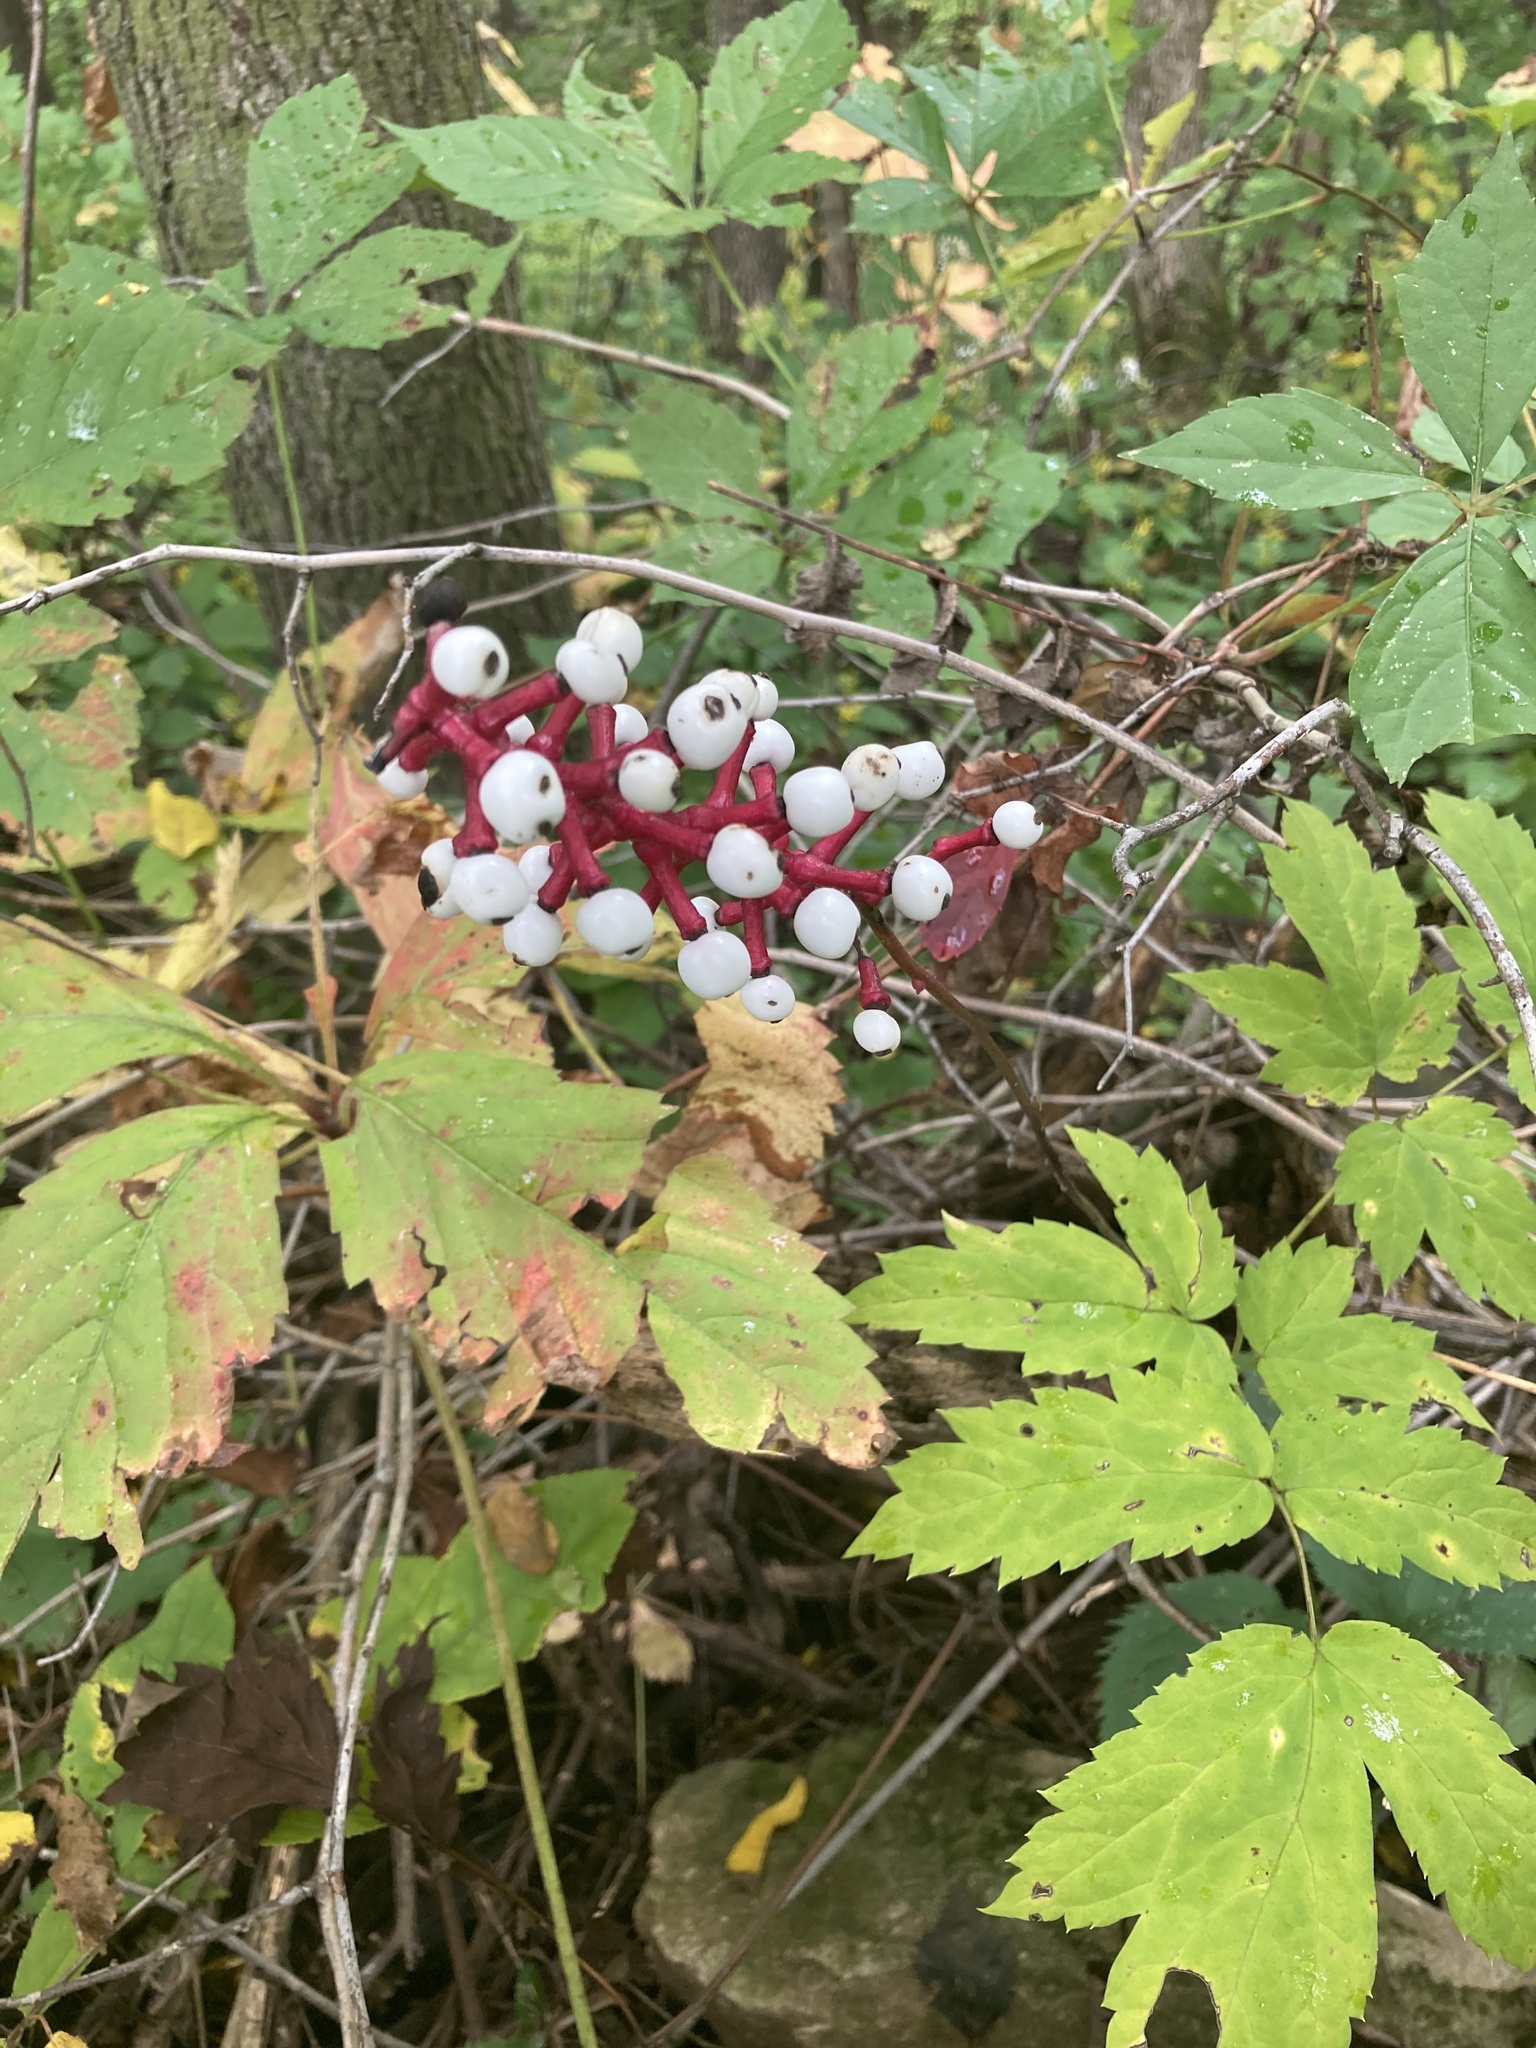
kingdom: Plantae
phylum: Tracheophyta
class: Magnoliopsida
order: Ranunculales
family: Ranunculaceae
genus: Actaea
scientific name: Actaea pachypoda
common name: Doll's-eyes
